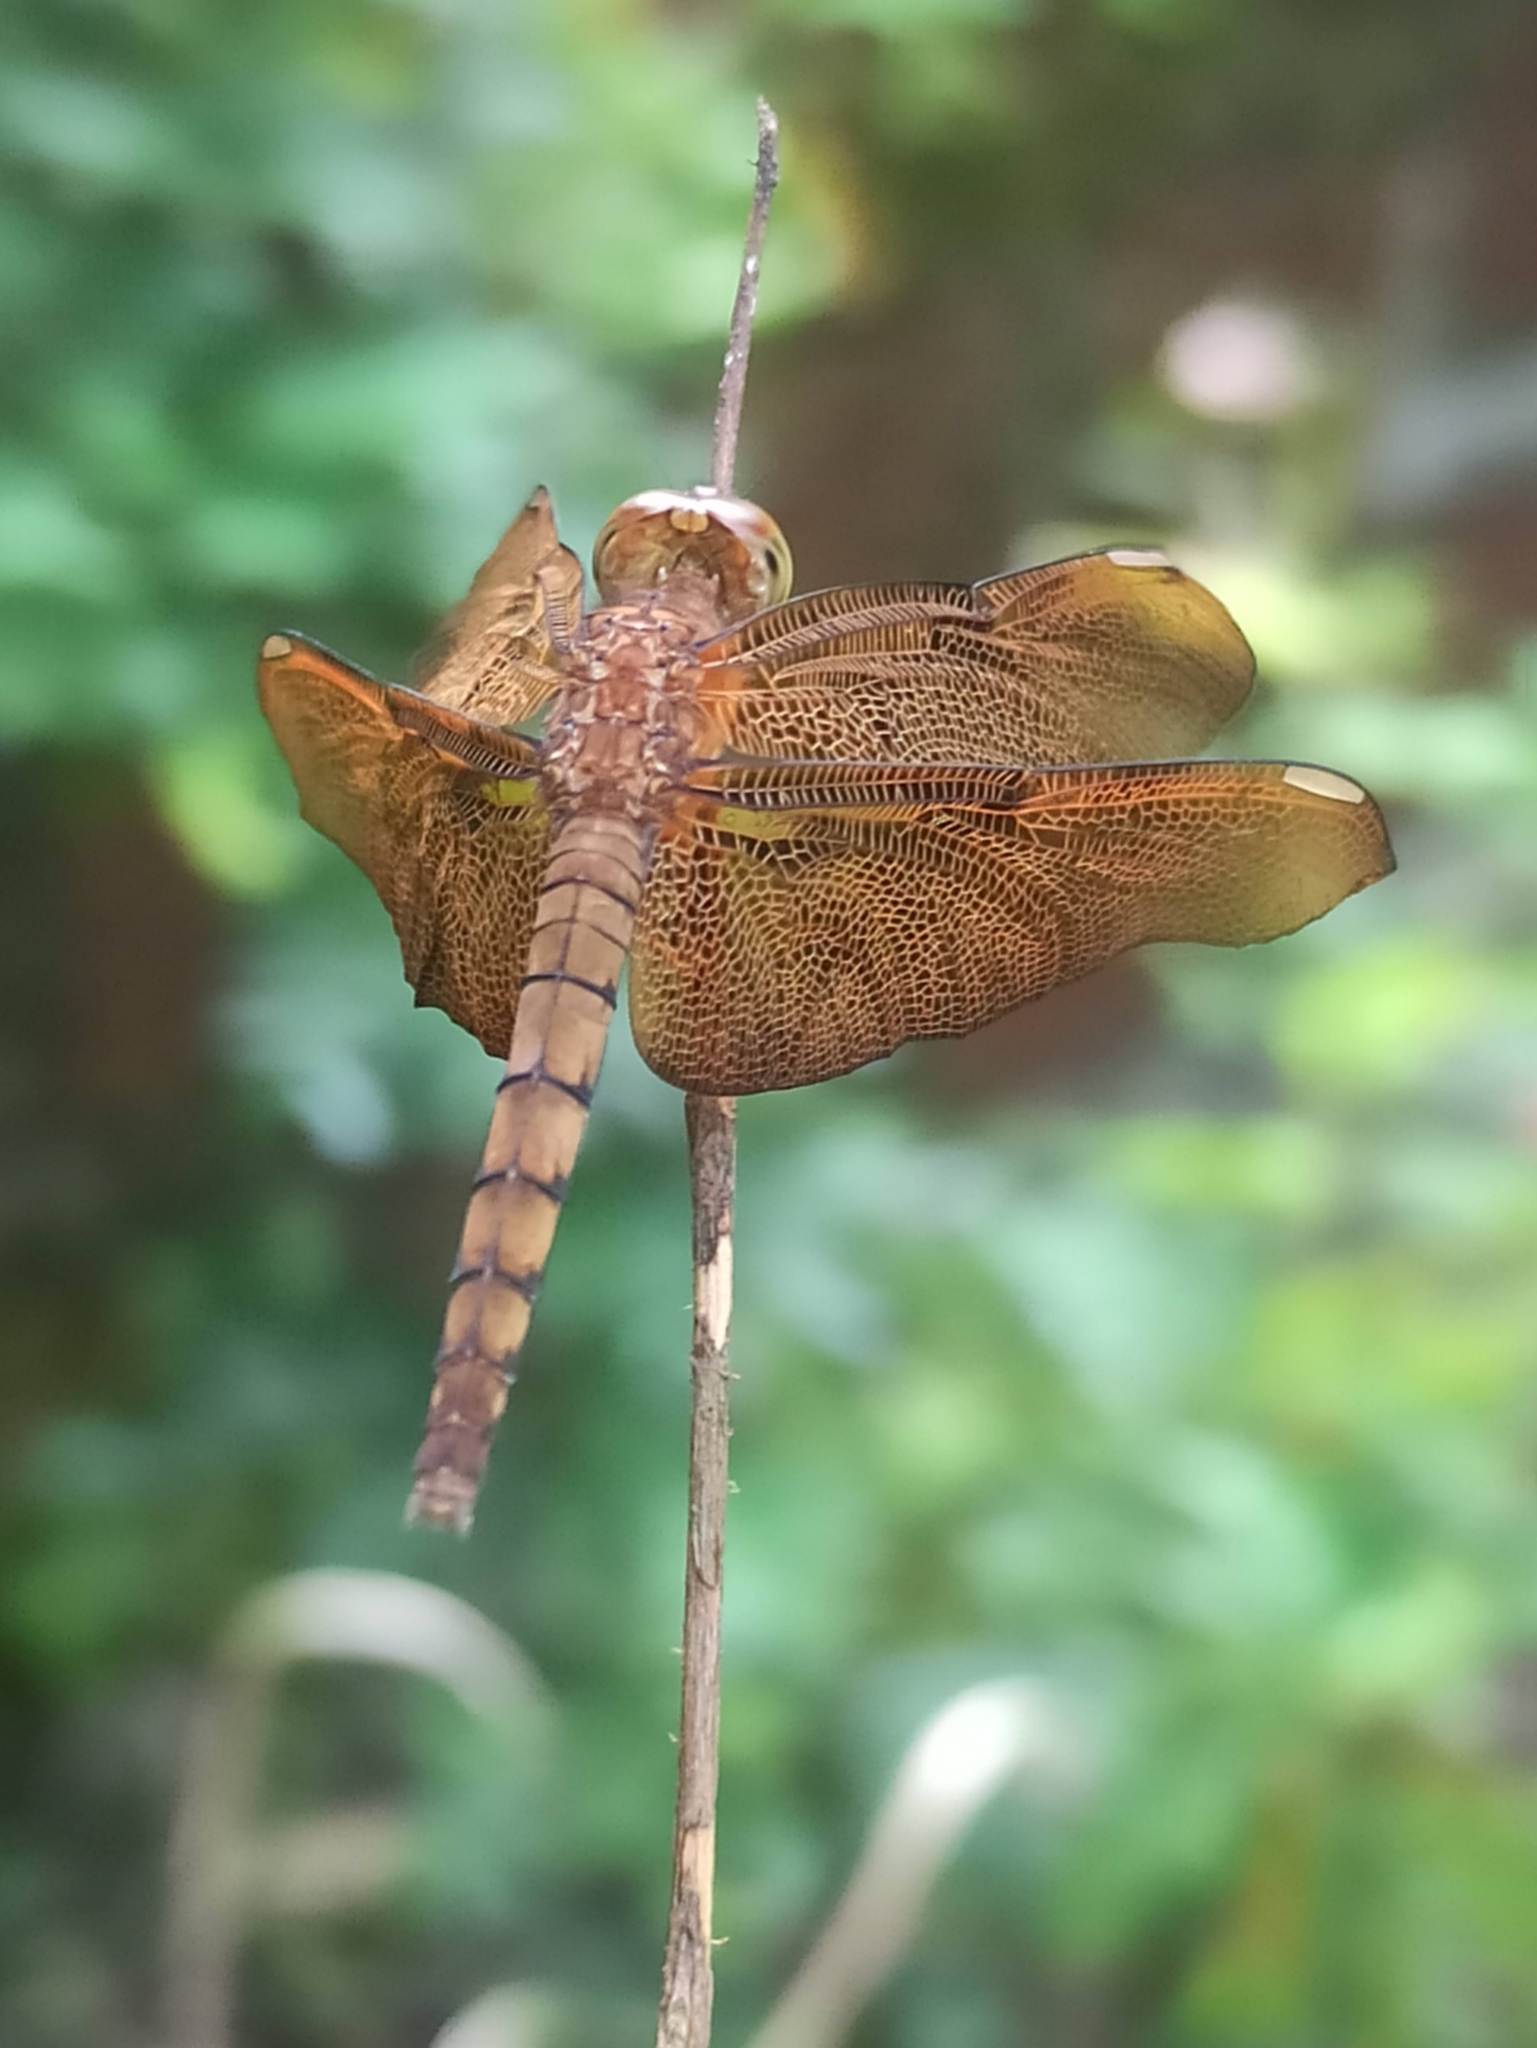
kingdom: Animalia
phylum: Arthropoda
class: Insecta
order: Odonata
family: Libellulidae
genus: Neurothemis
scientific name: Neurothemis fulvia
